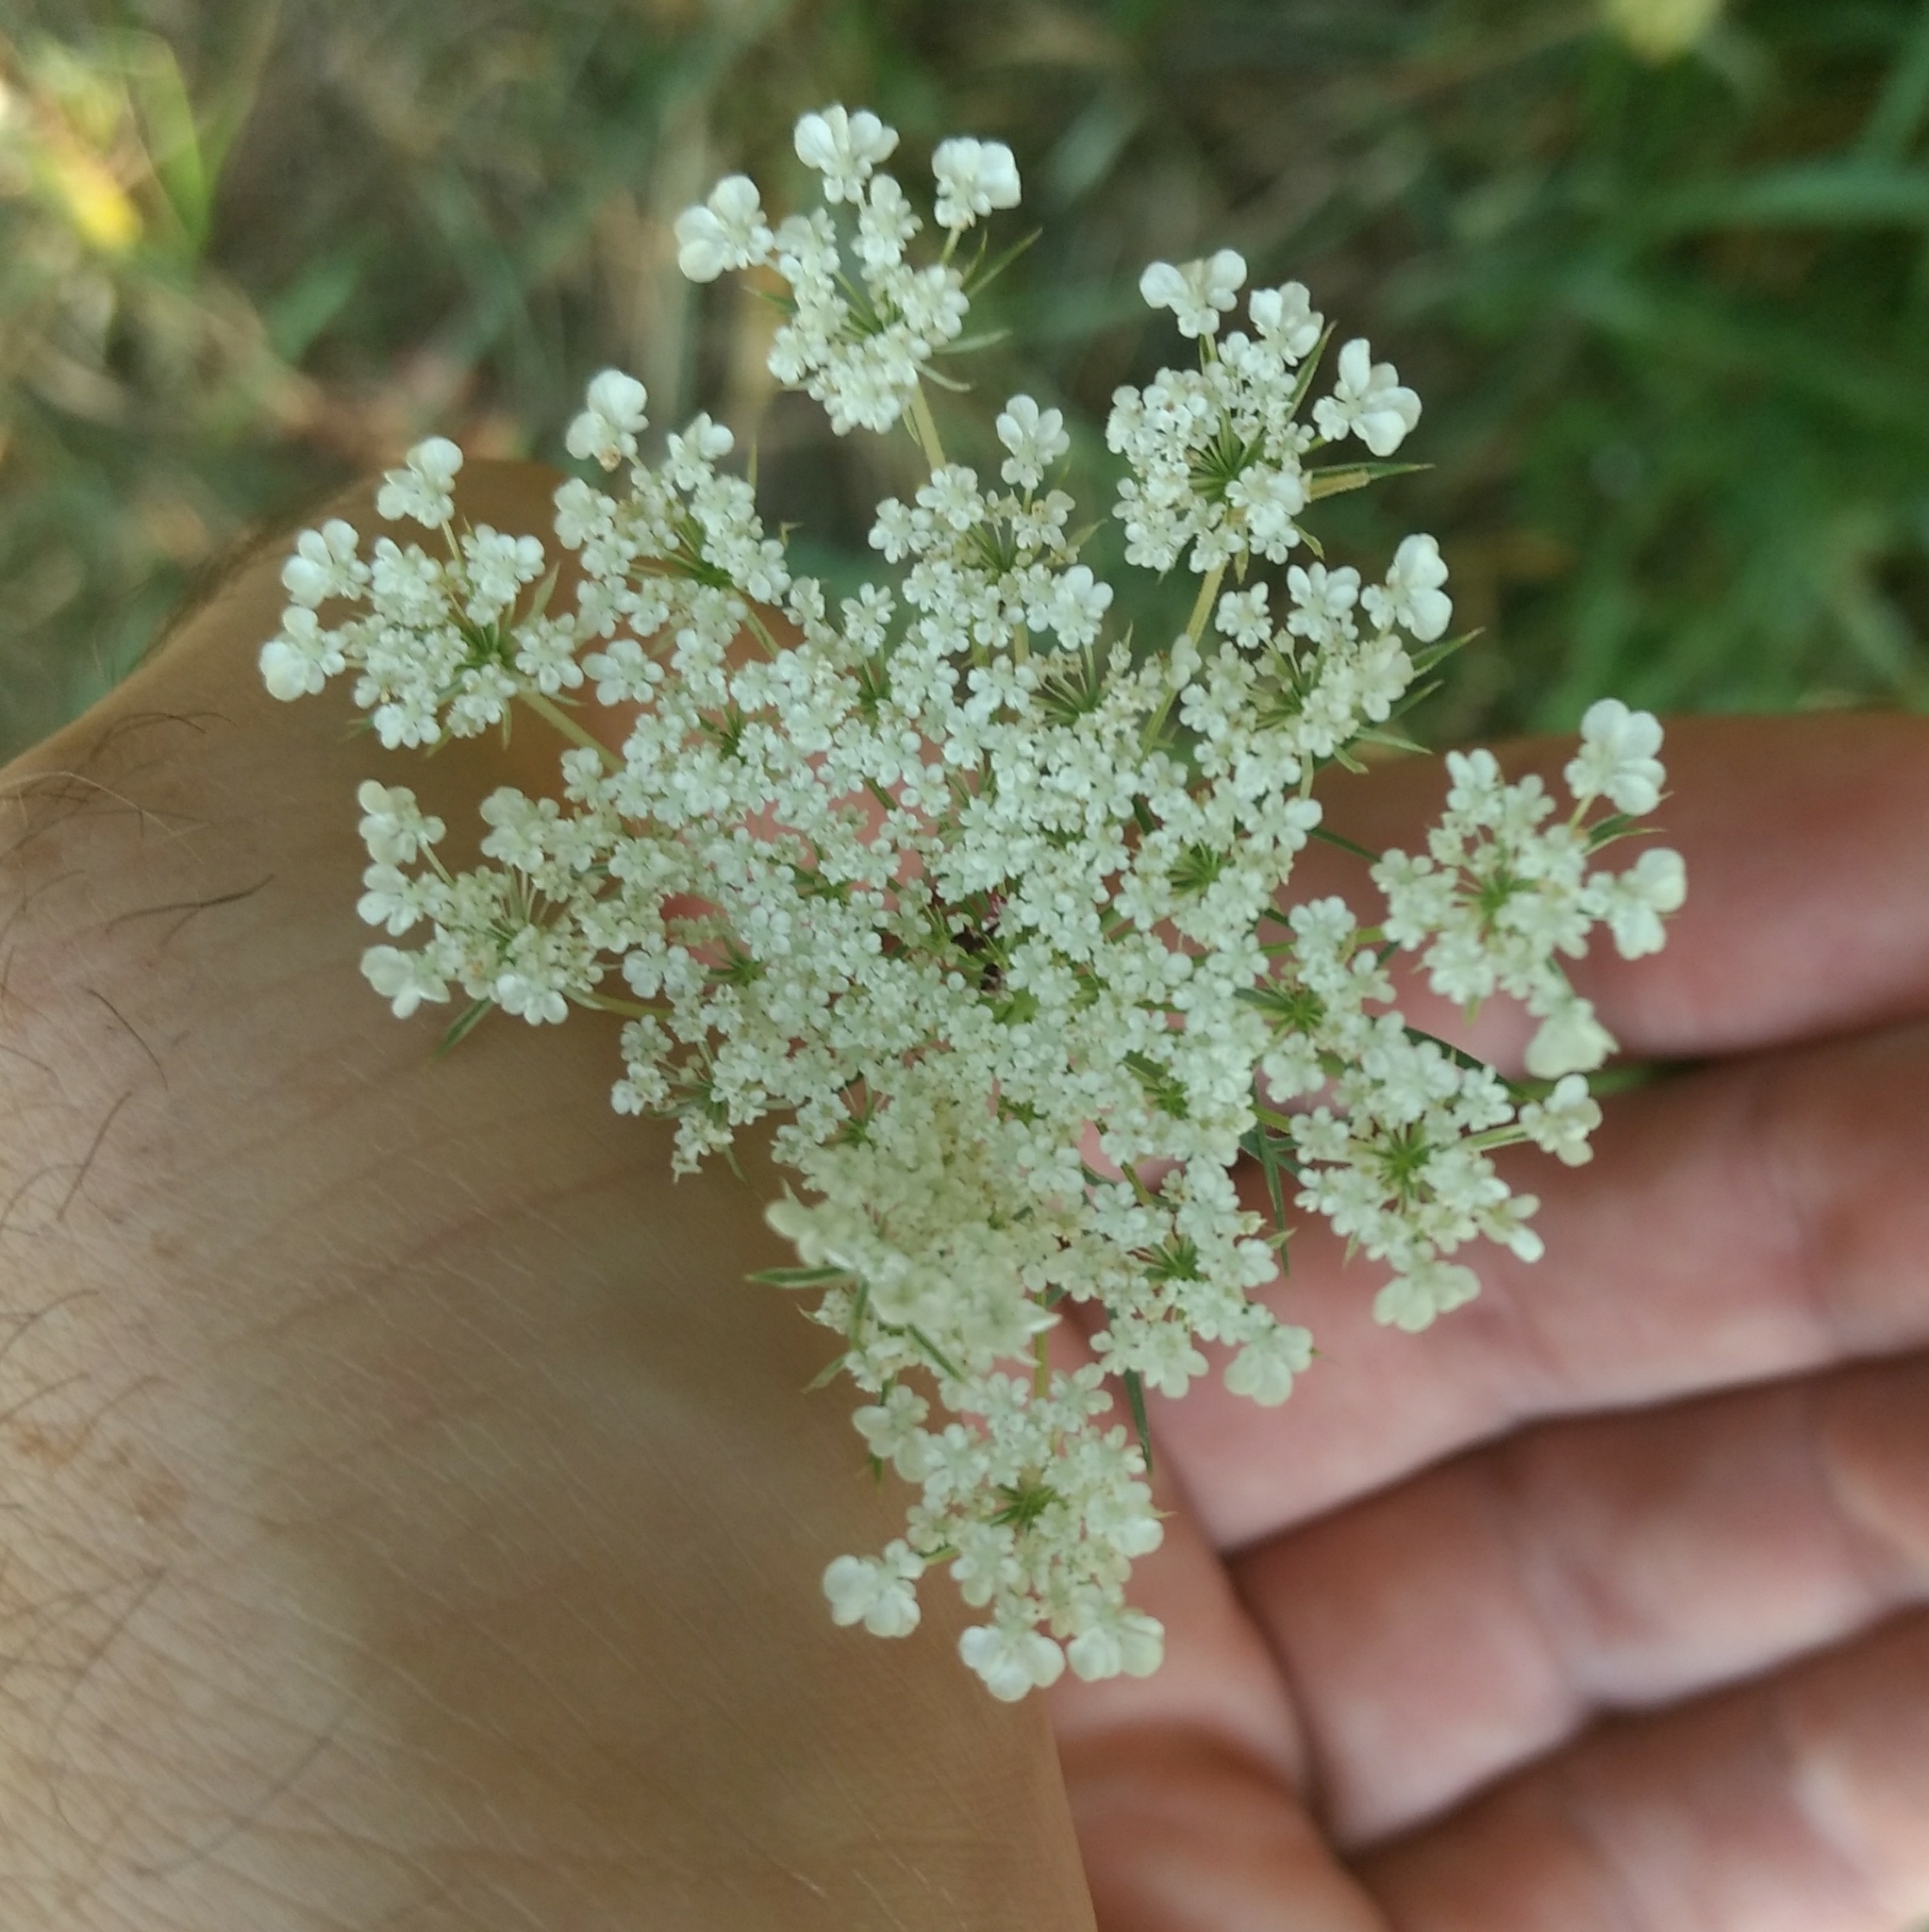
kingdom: Plantae
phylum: Tracheophyta
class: Magnoliopsida
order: Apiales
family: Apiaceae
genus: Daucus
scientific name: Daucus carota
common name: Wild carrot
